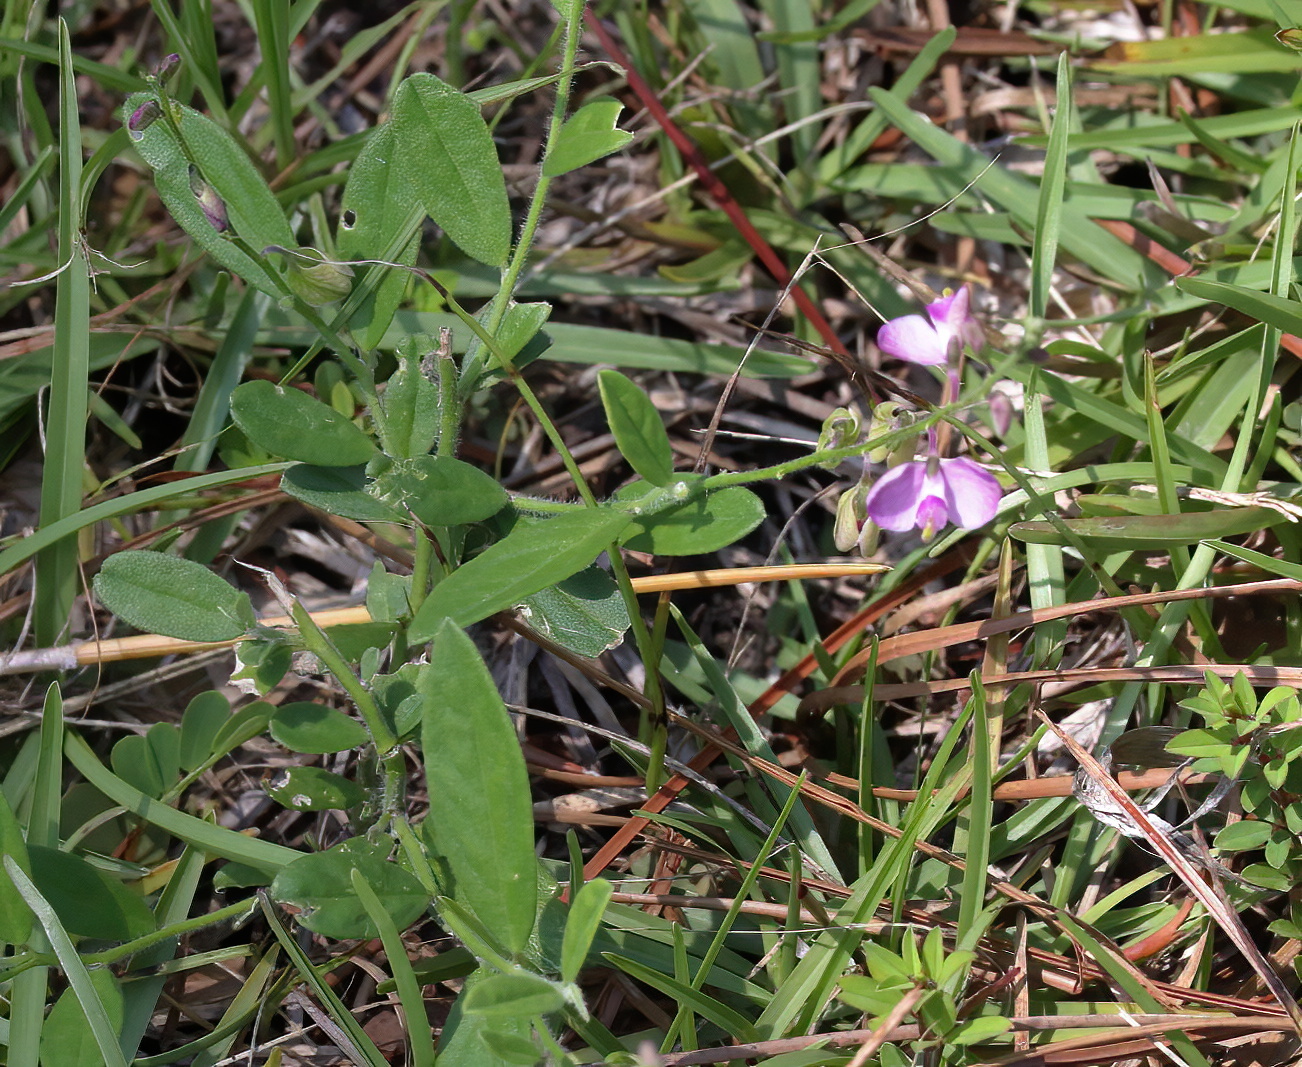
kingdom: Plantae
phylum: Tracheophyta
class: Magnoliopsida
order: Fabales
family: Polygalaceae
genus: Asemeia
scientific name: Asemeia grandiflora
